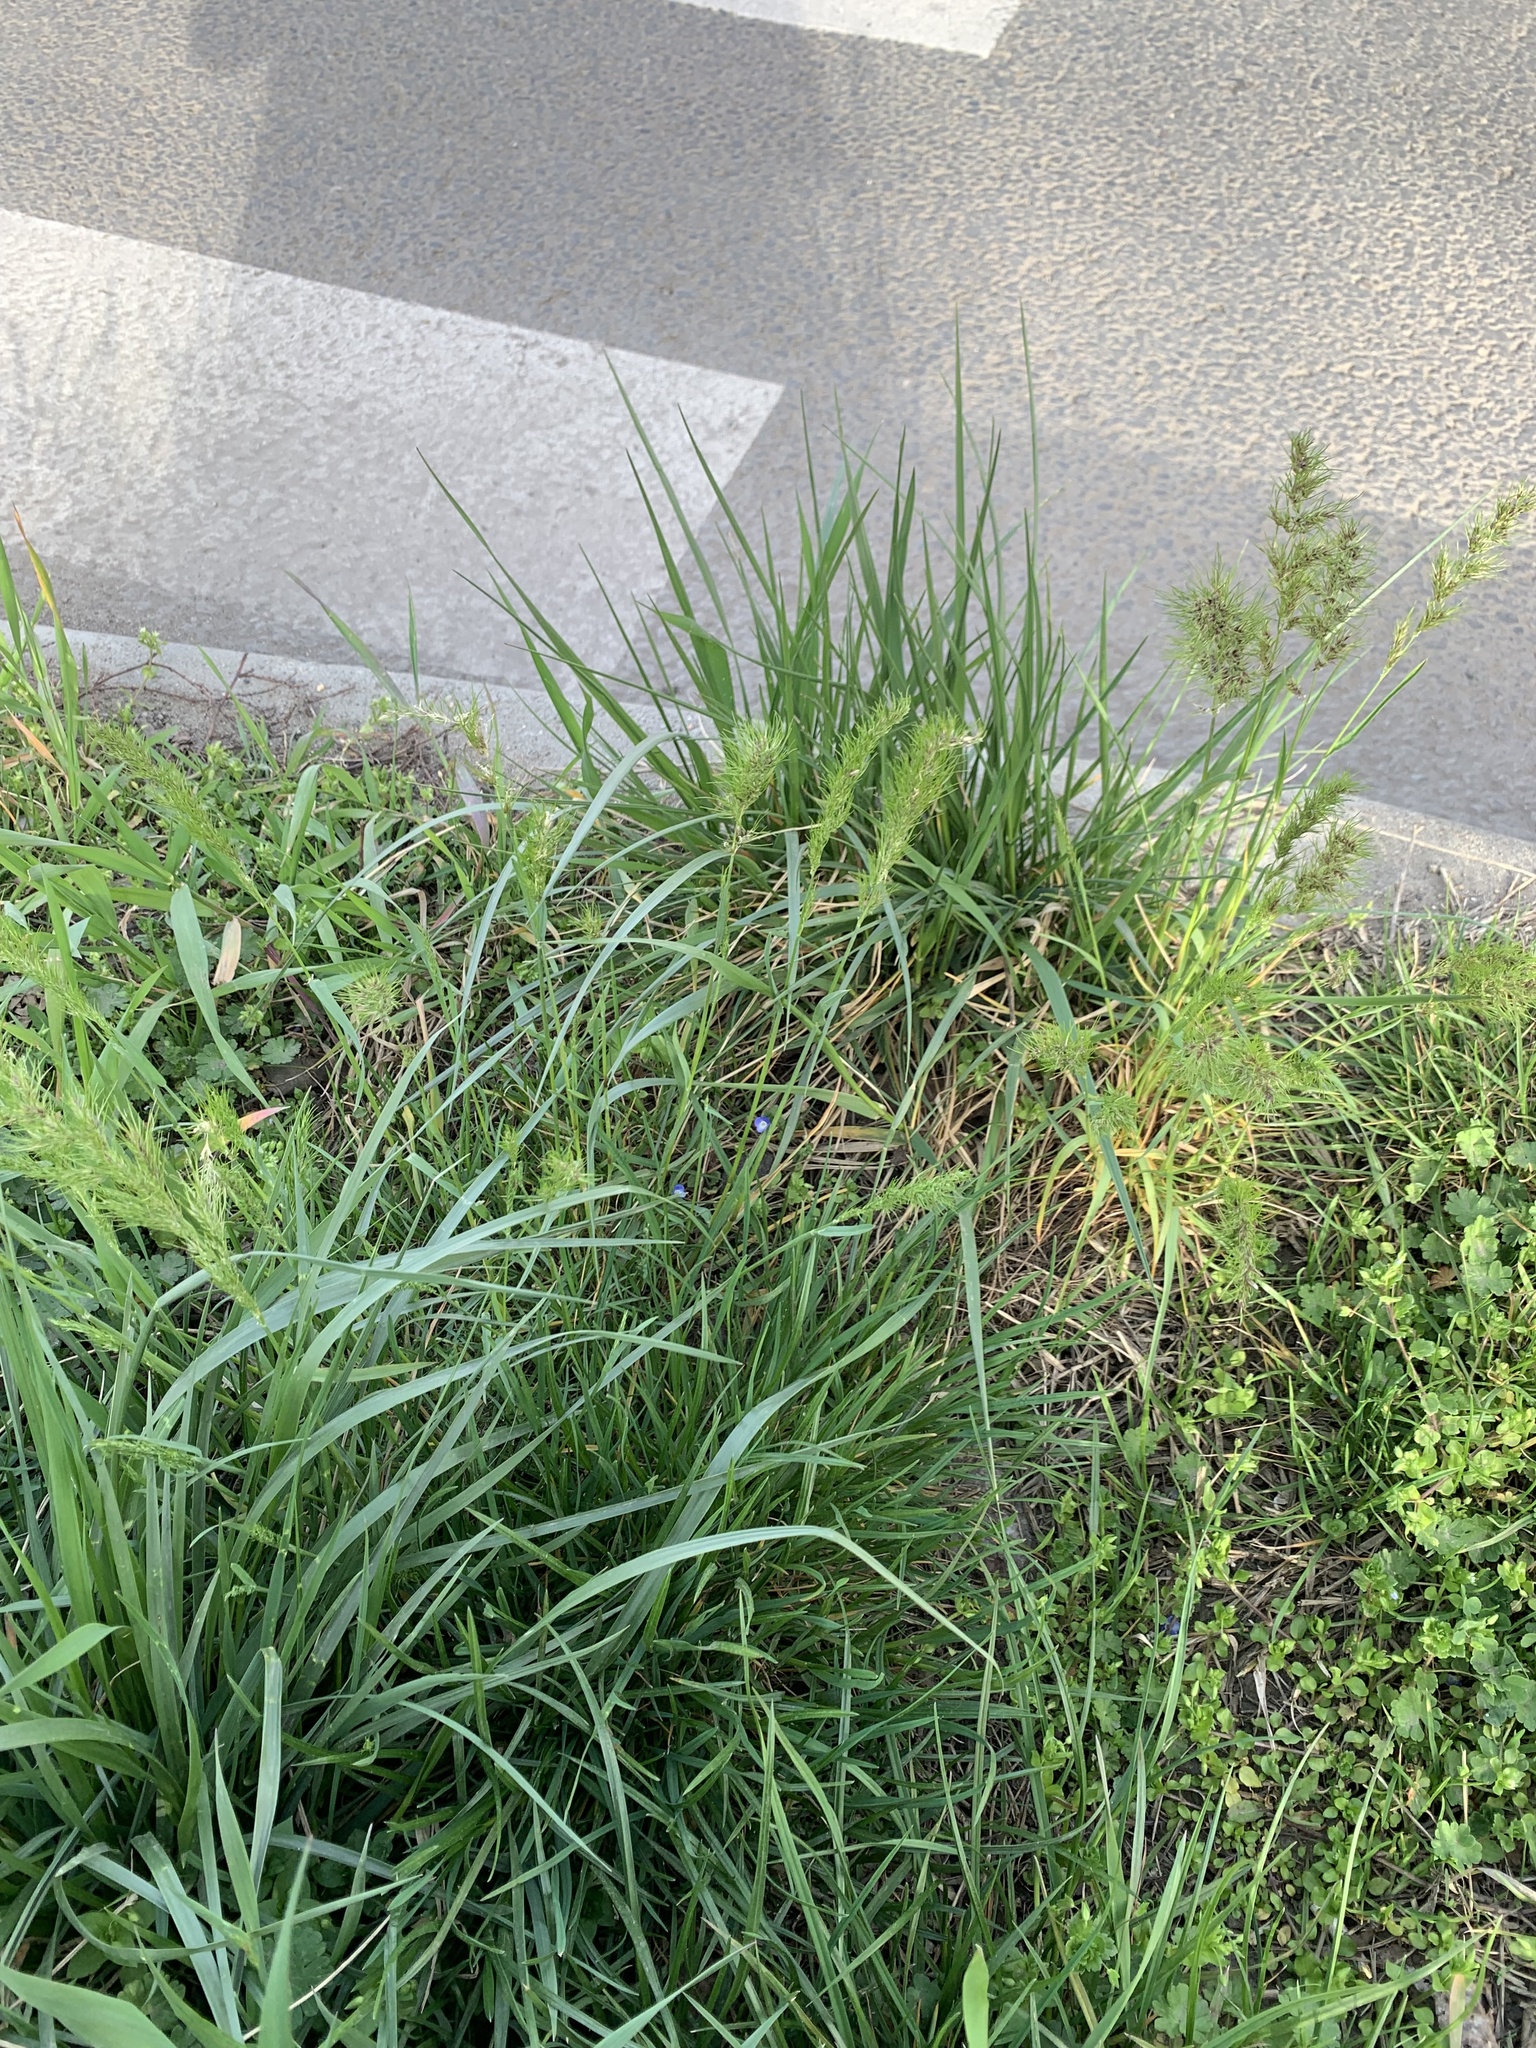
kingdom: Plantae
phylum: Tracheophyta
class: Liliopsida
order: Poales
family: Poaceae
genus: Poa
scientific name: Poa bulbosa
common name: Bulbous bluegrass
